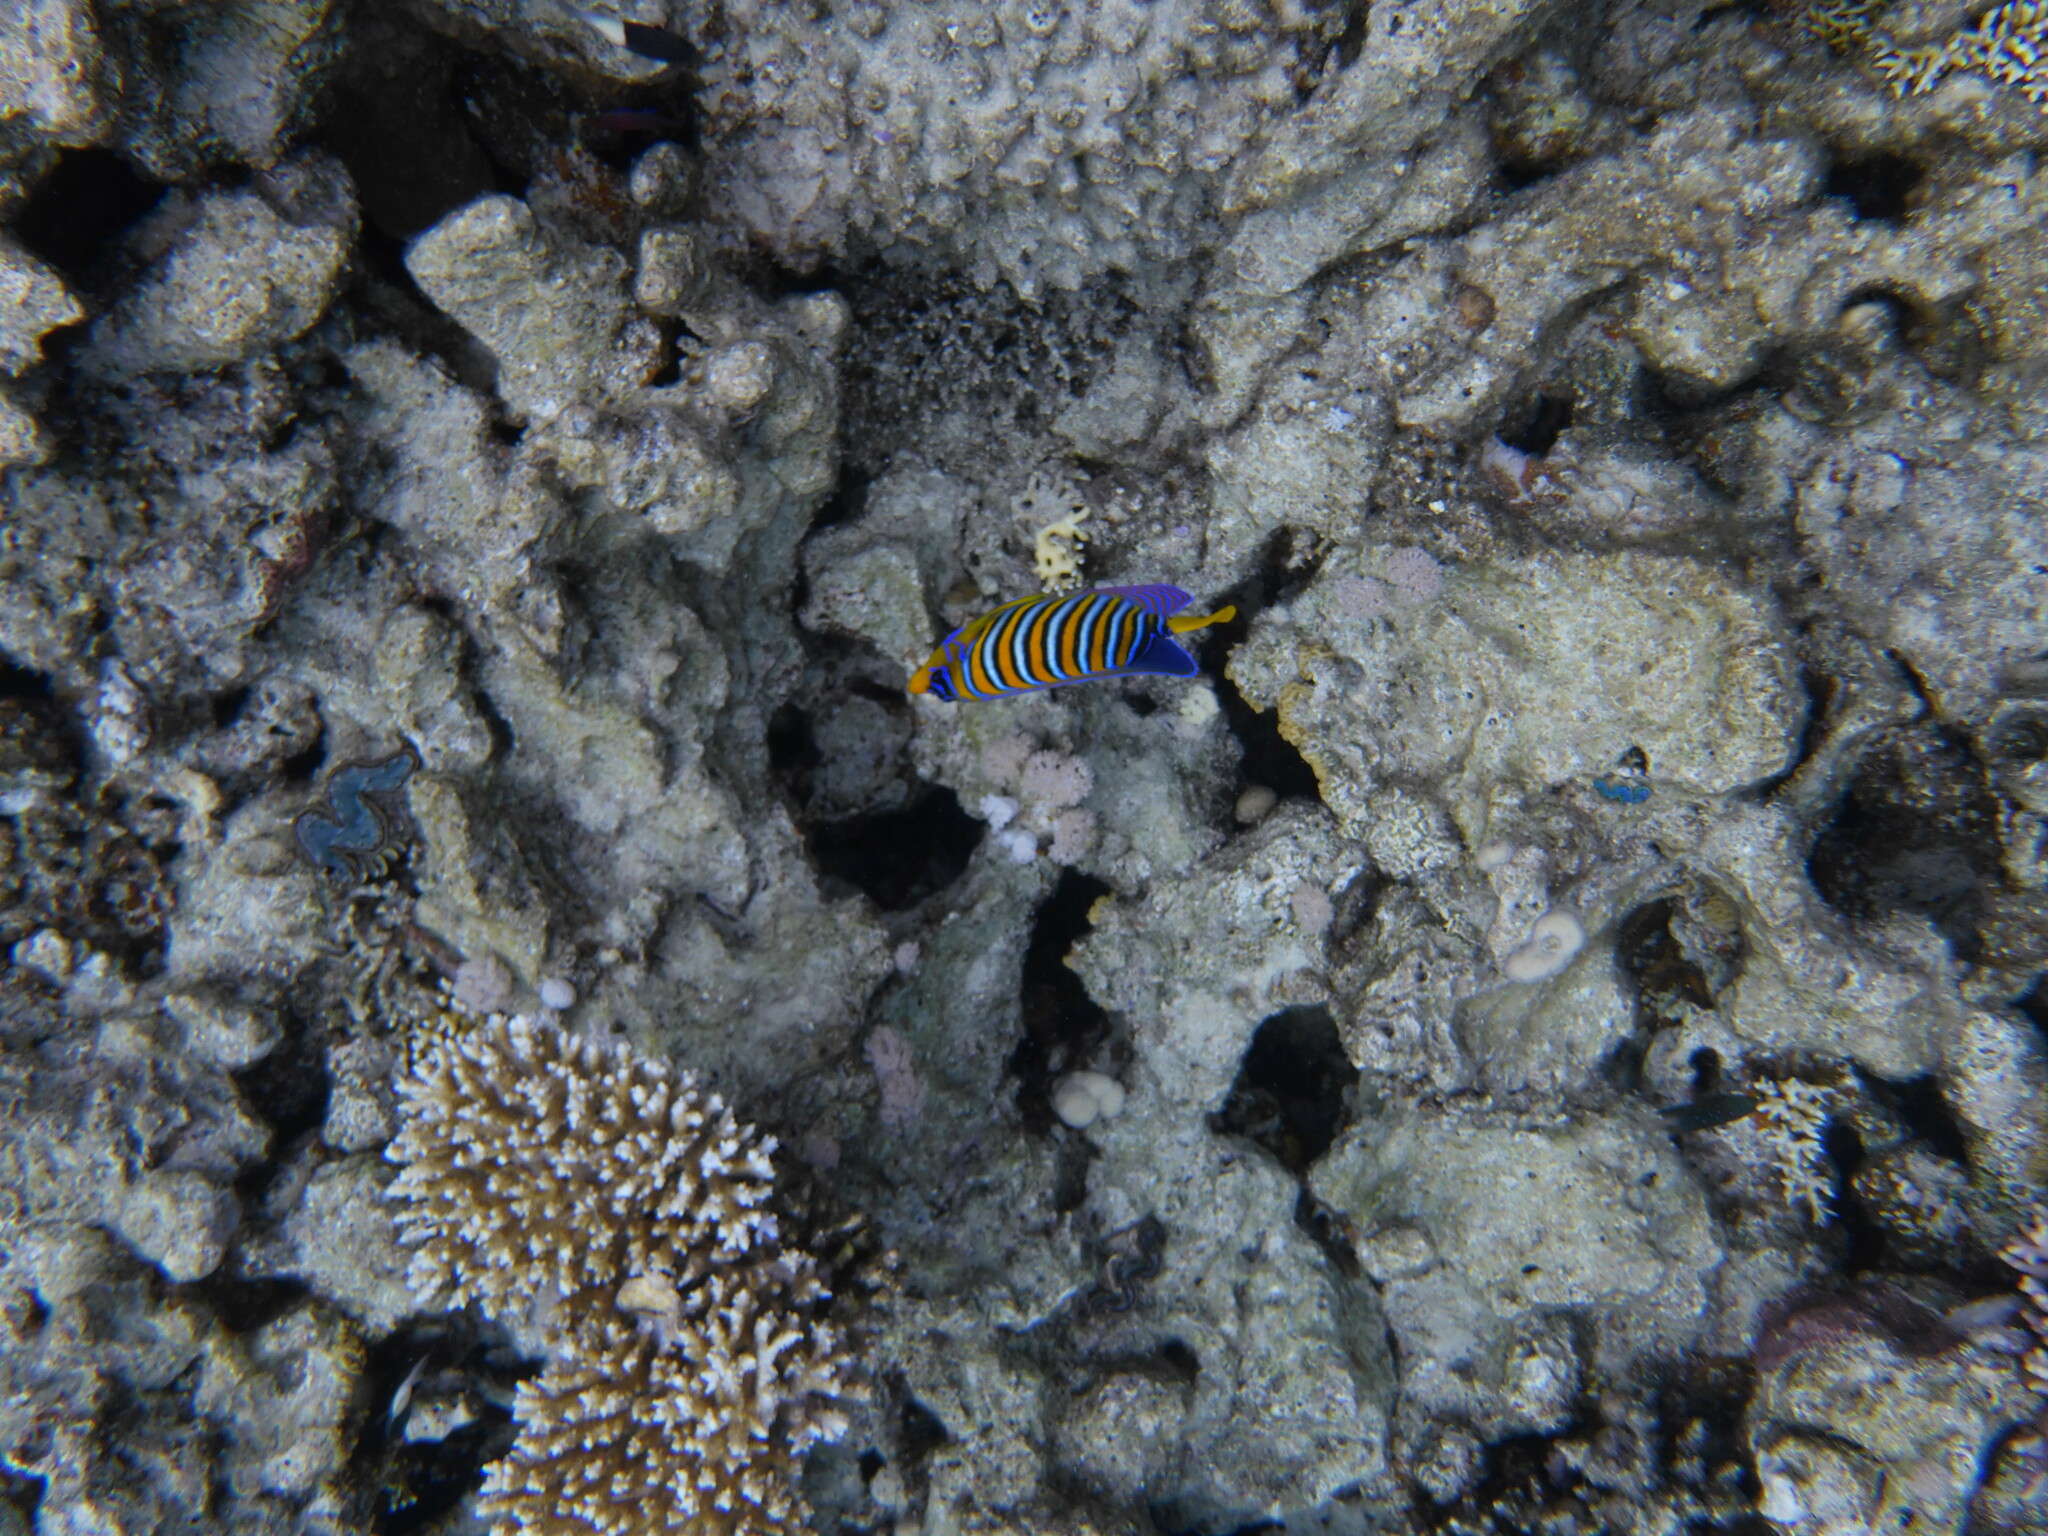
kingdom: Animalia
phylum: Chordata
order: Perciformes
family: Pomacanthidae
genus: Pygoplites
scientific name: Pygoplites diacanthus
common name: Regal angelfish
